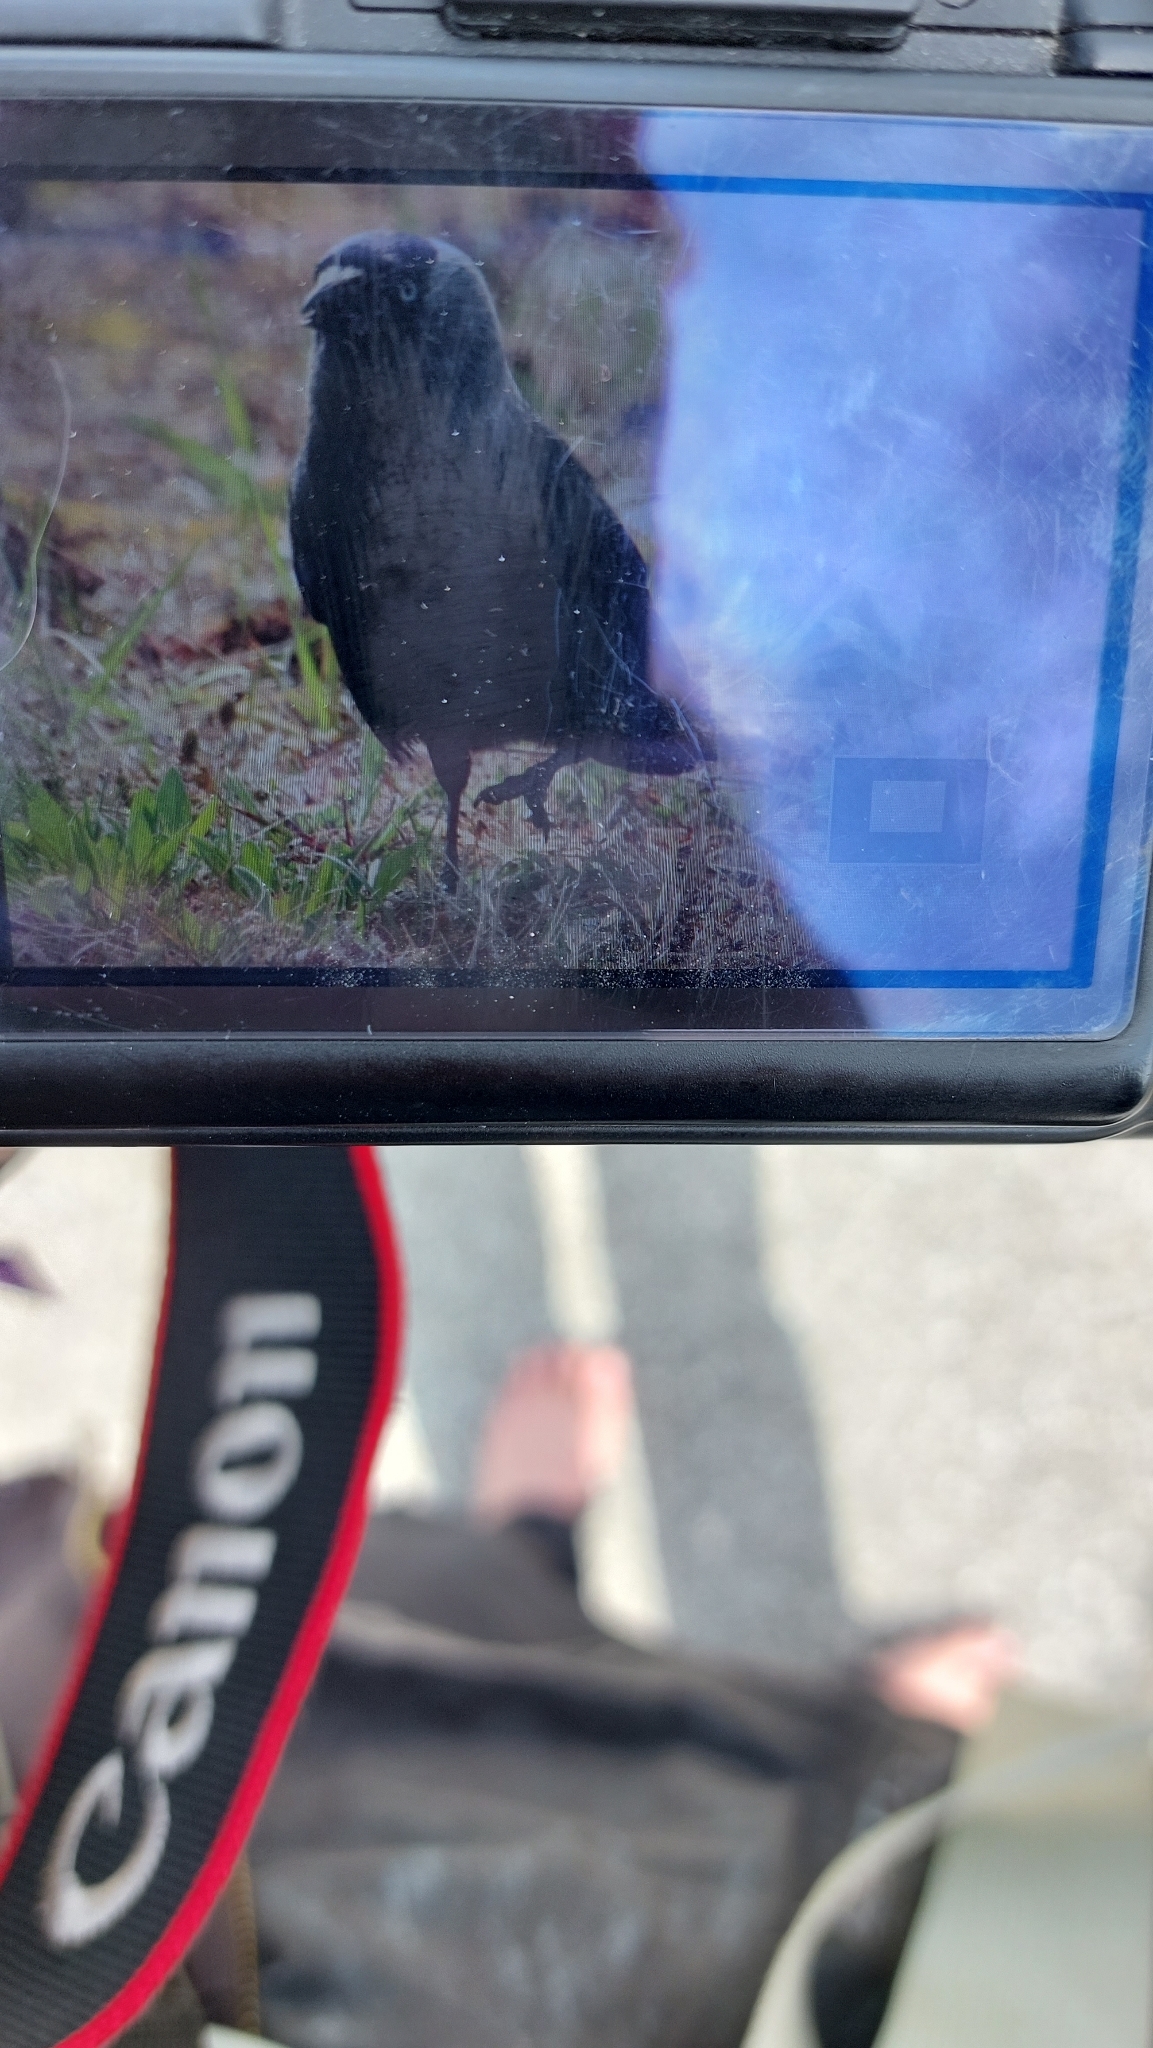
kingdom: Animalia
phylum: Chordata
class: Aves
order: Passeriformes
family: Corvidae
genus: Coloeus
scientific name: Coloeus monedula
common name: Western jackdaw
